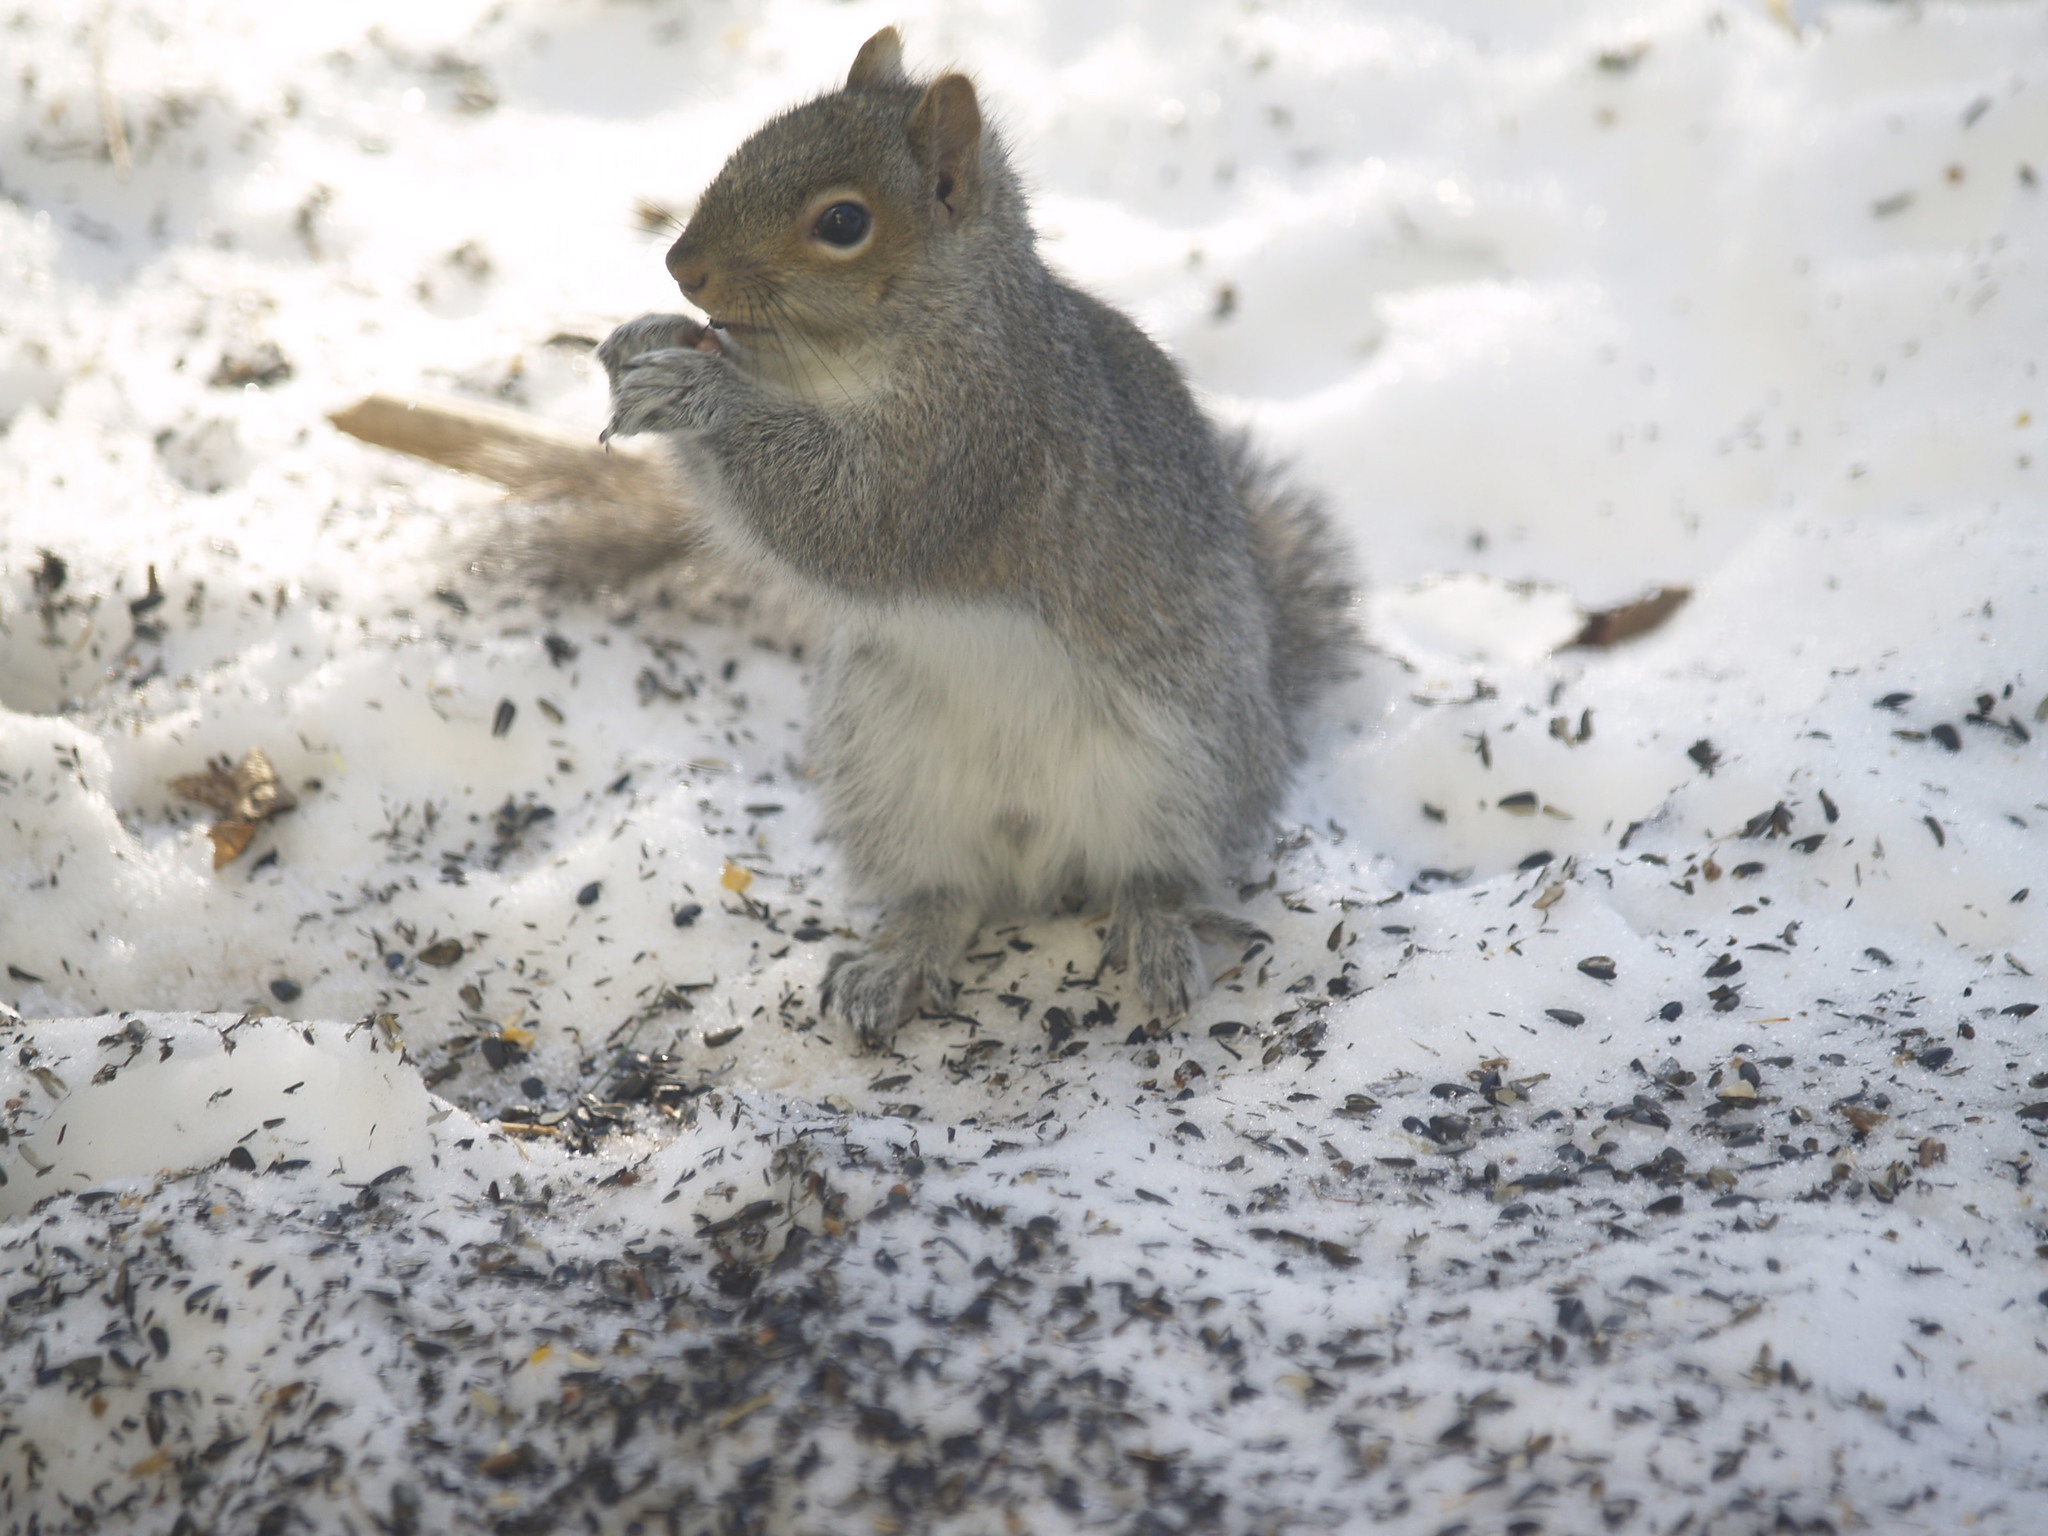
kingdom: Animalia
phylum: Chordata
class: Mammalia
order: Rodentia
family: Sciuridae
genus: Sciurus
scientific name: Sciurus carolinensis
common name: Eastern gray squirrel
